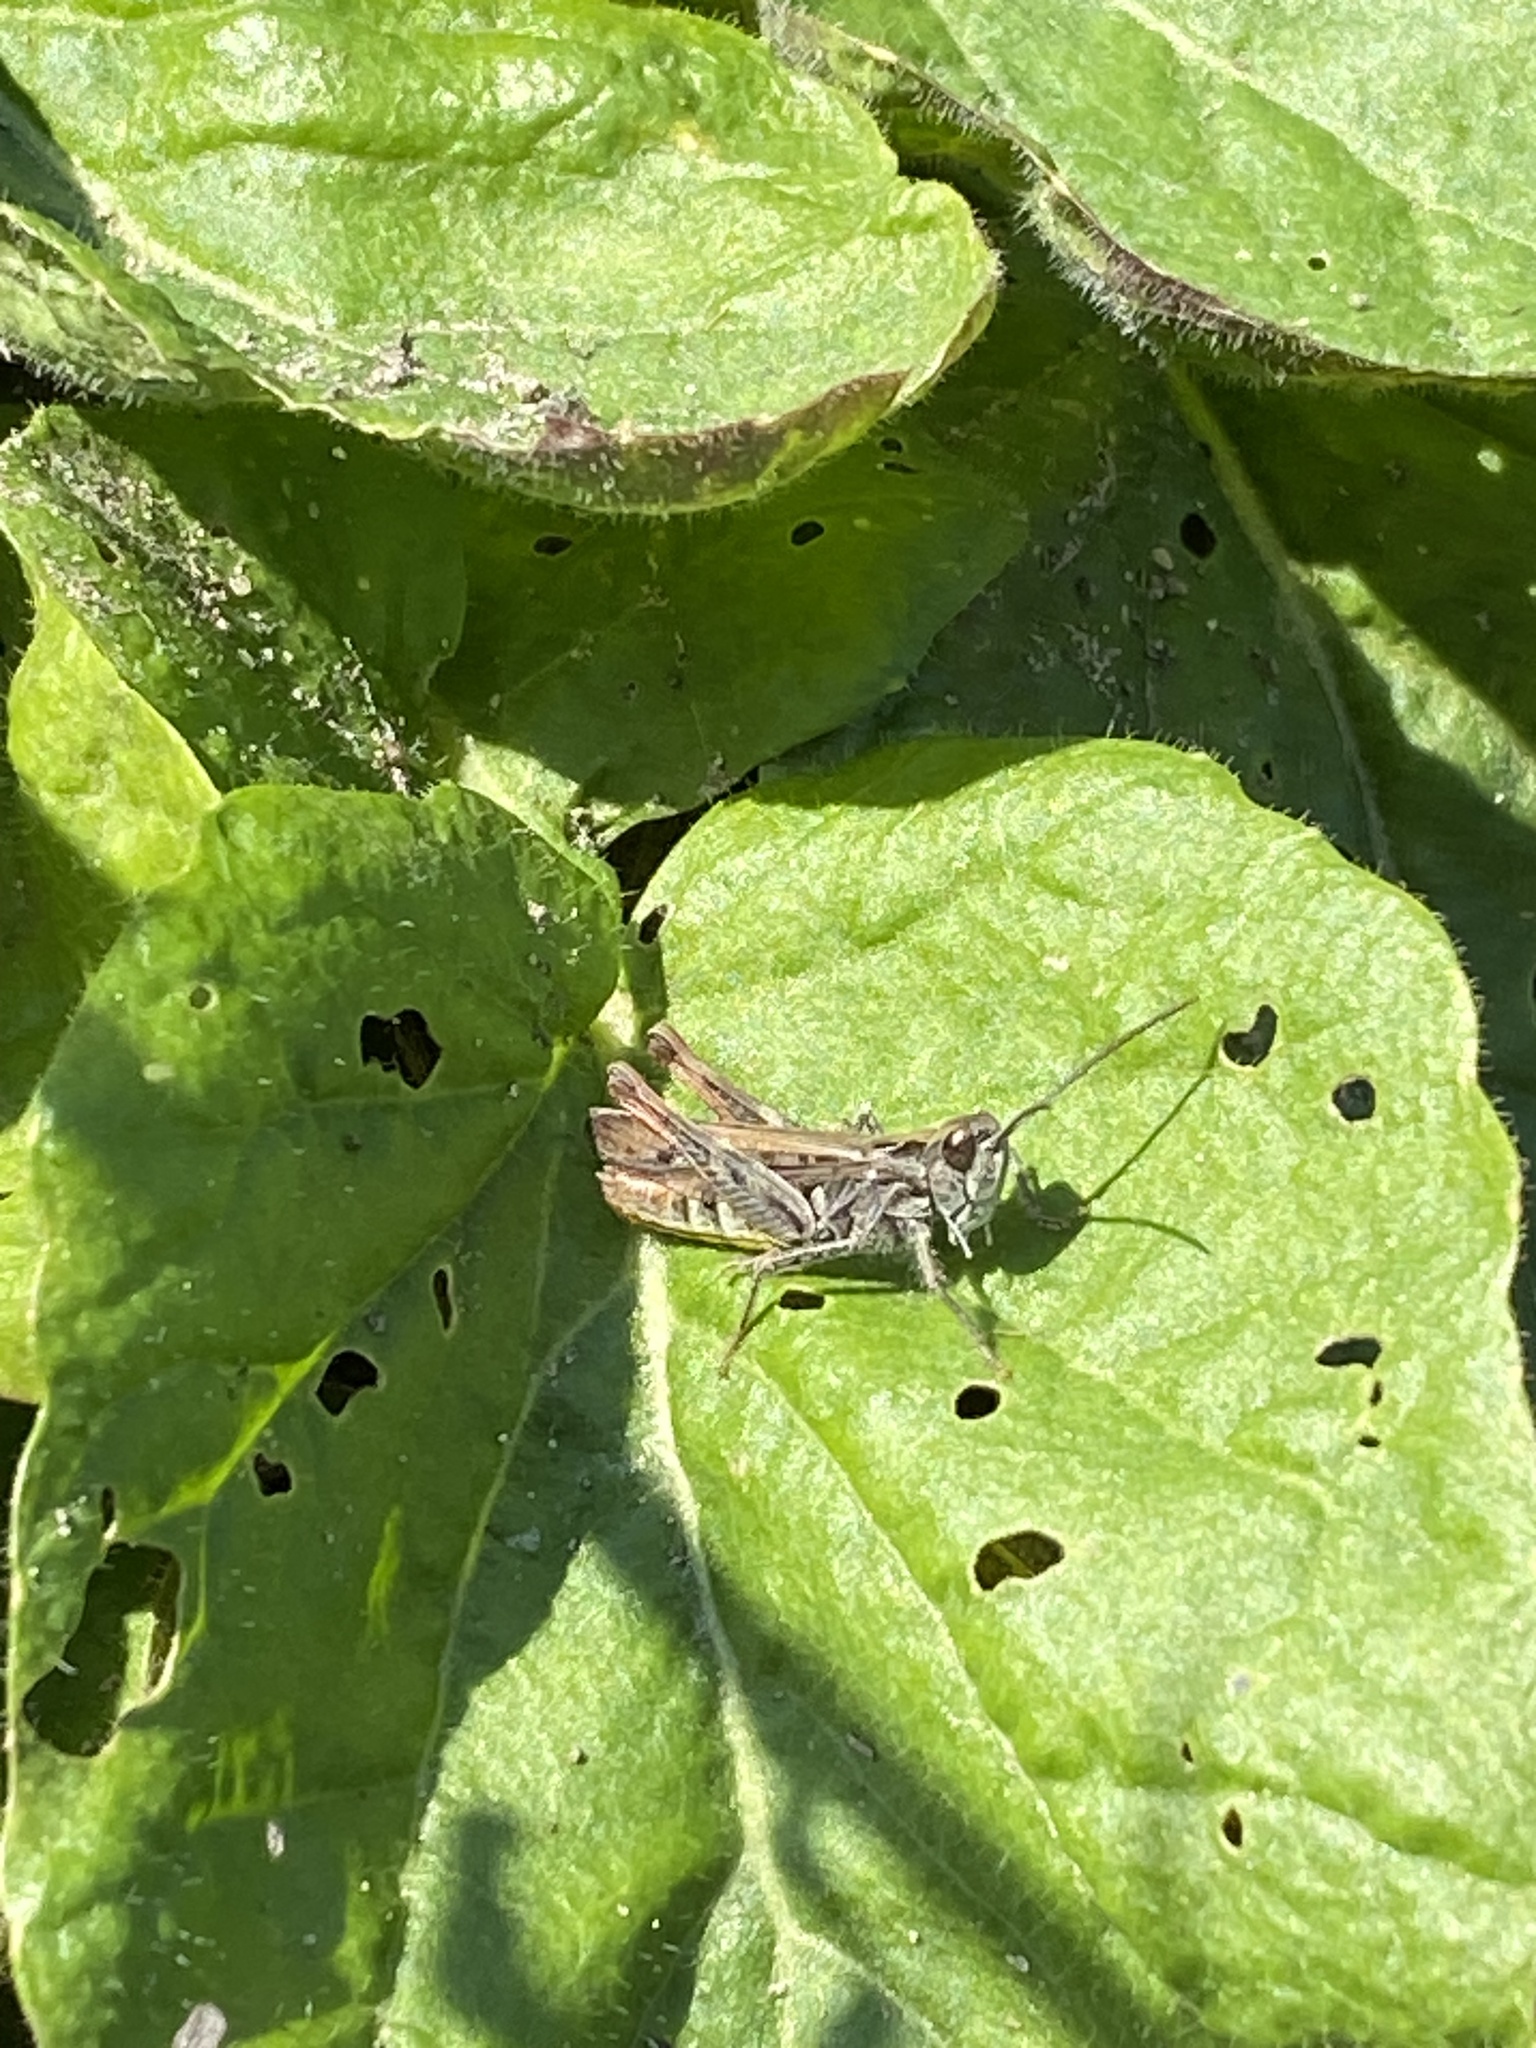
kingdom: Animalia
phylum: Arthropoda
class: Insecta
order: Orthoptera
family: Acrididae
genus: Chorthippus
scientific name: Chorthippus biguttulus
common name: Bow-winged grasshopper
